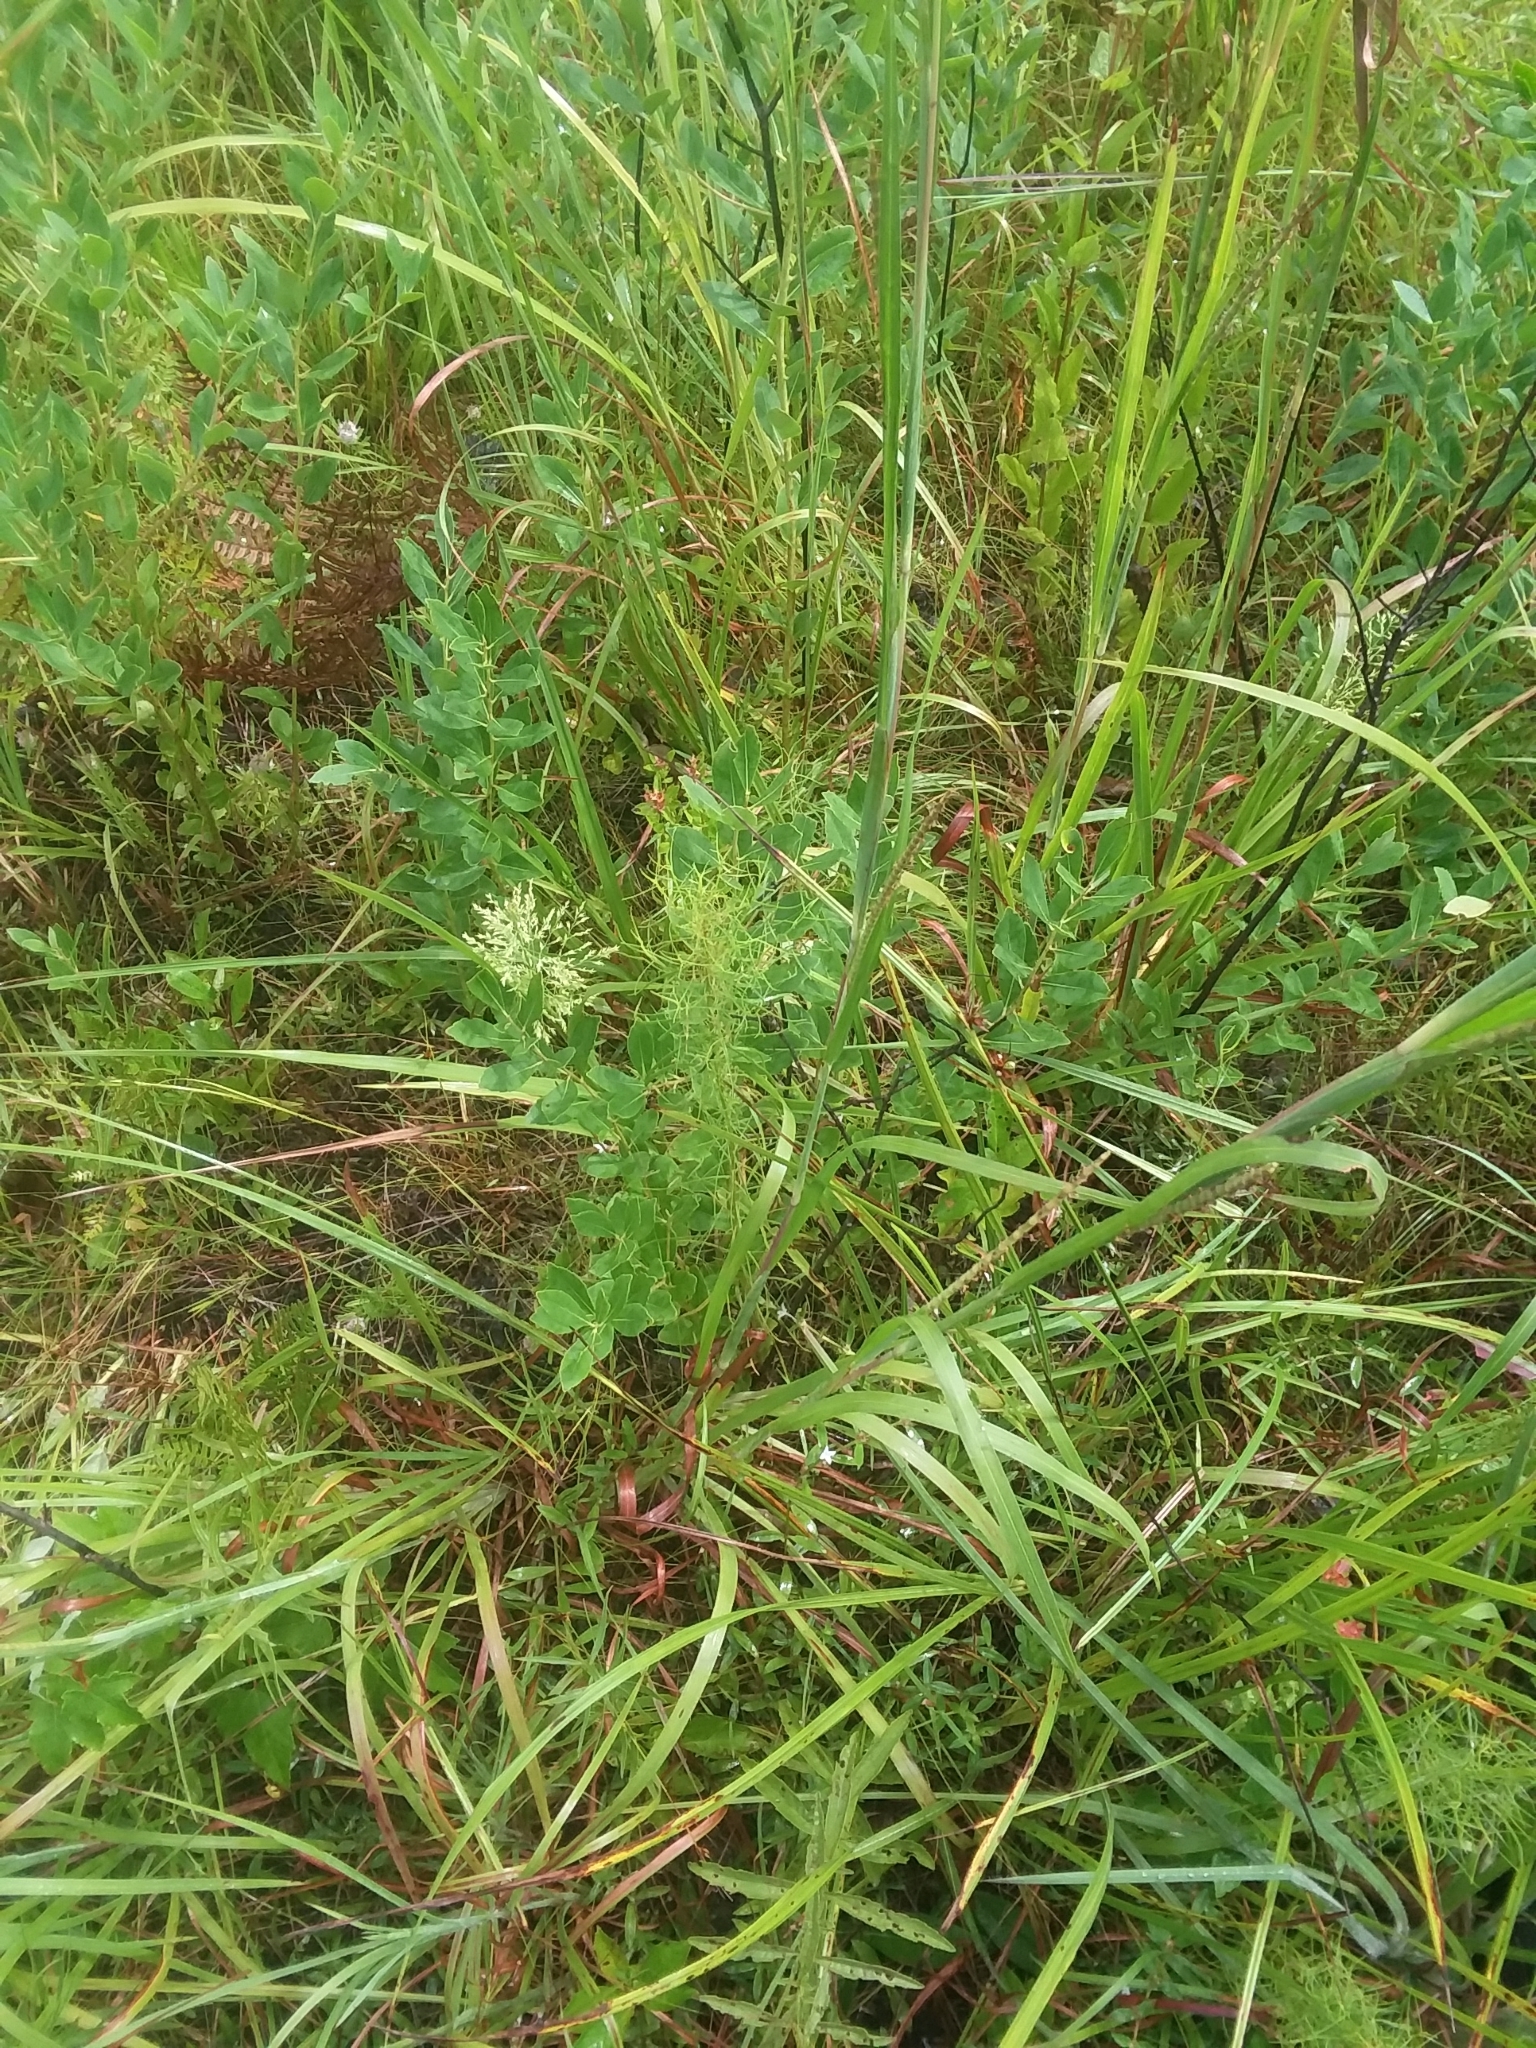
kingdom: Plantae
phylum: Tracheophyta
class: Liliopsida
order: Poales
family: Poaceae
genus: Rottboellia
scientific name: Rottboellia tessellata
